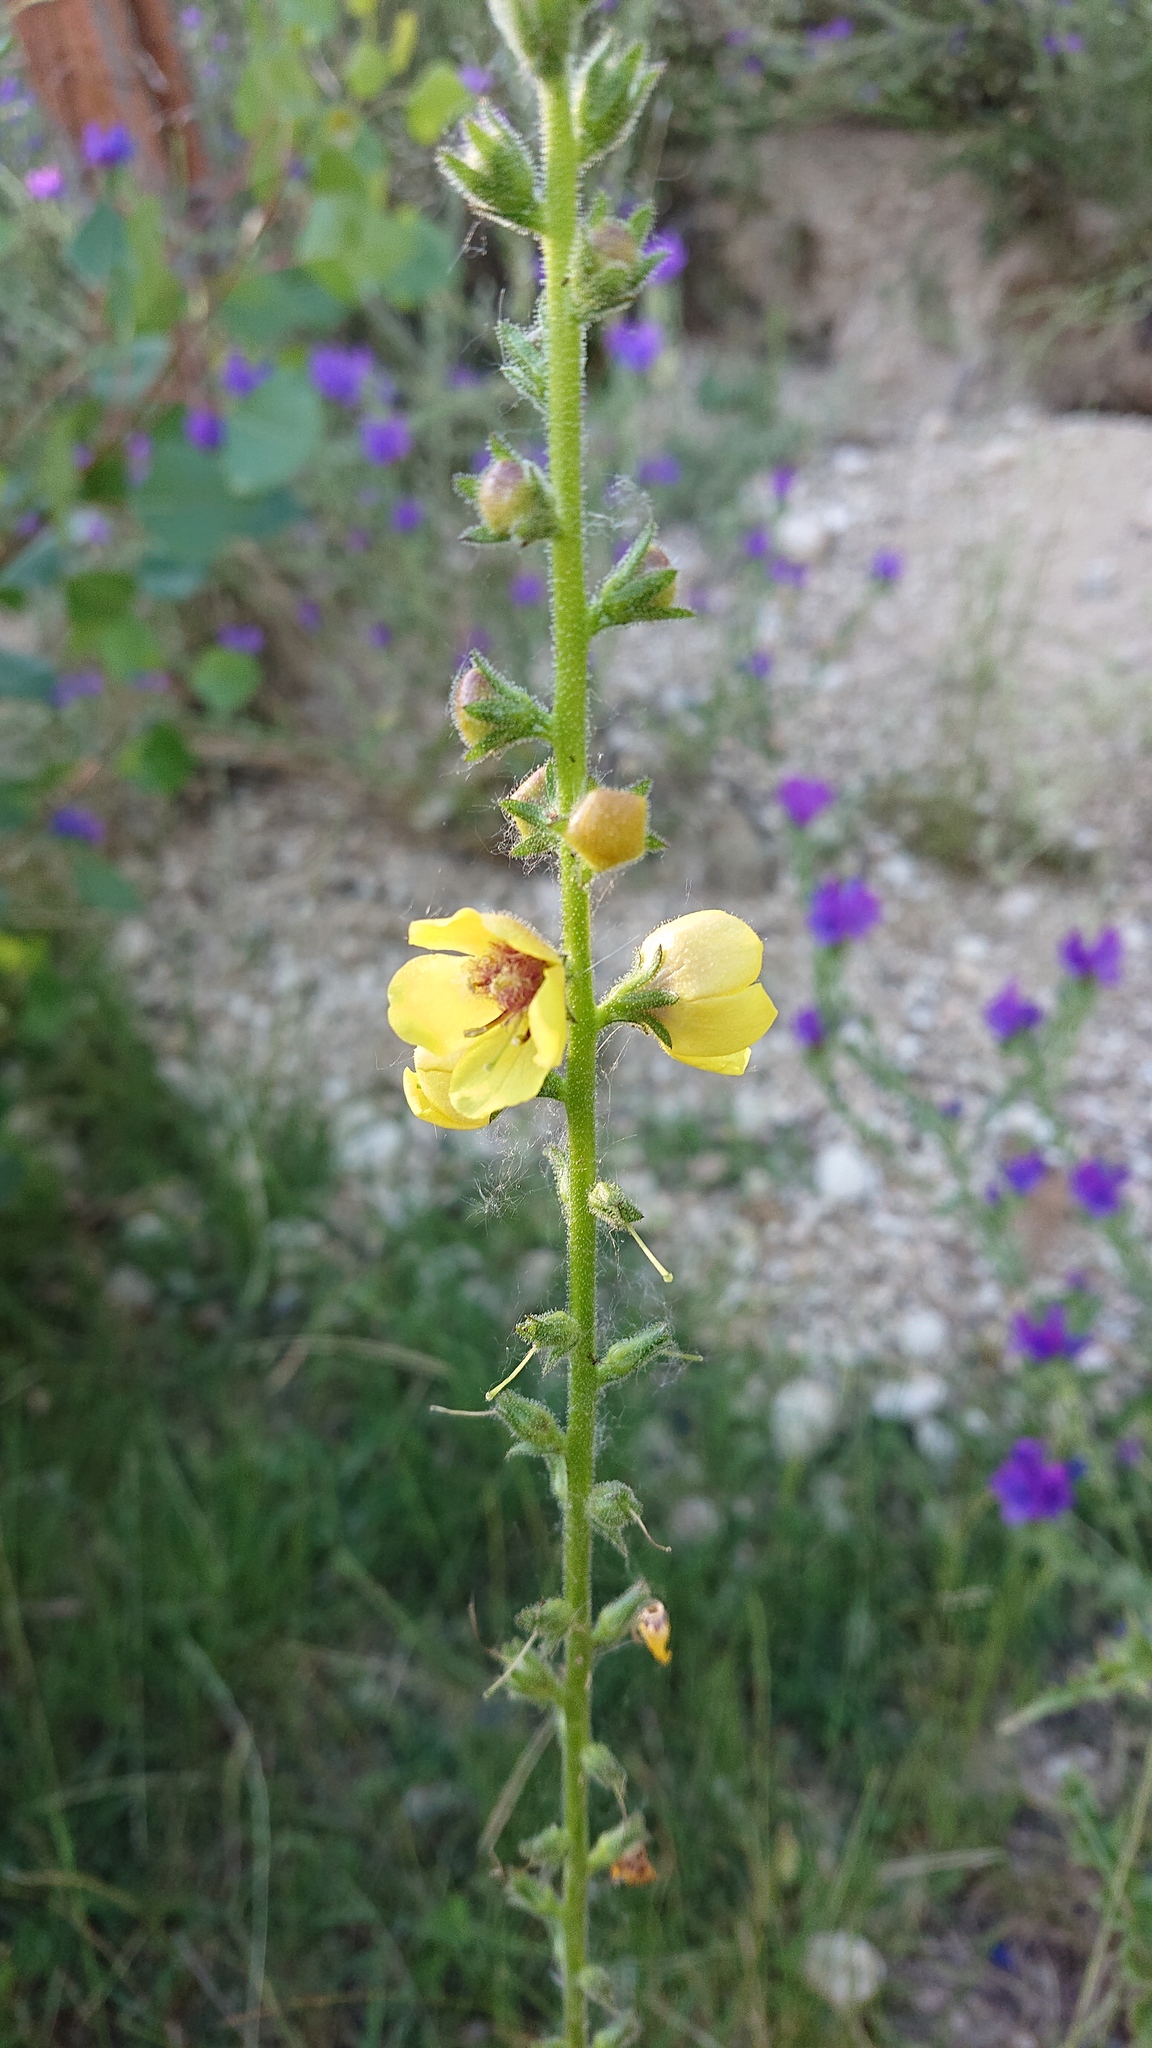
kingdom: Plantae
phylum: Tracheophyta
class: Magnoliopsida
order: Lamiales
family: Scrophulariaceae
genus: Verbascum
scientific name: Verbascum virgatum
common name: Twiggy mullein
